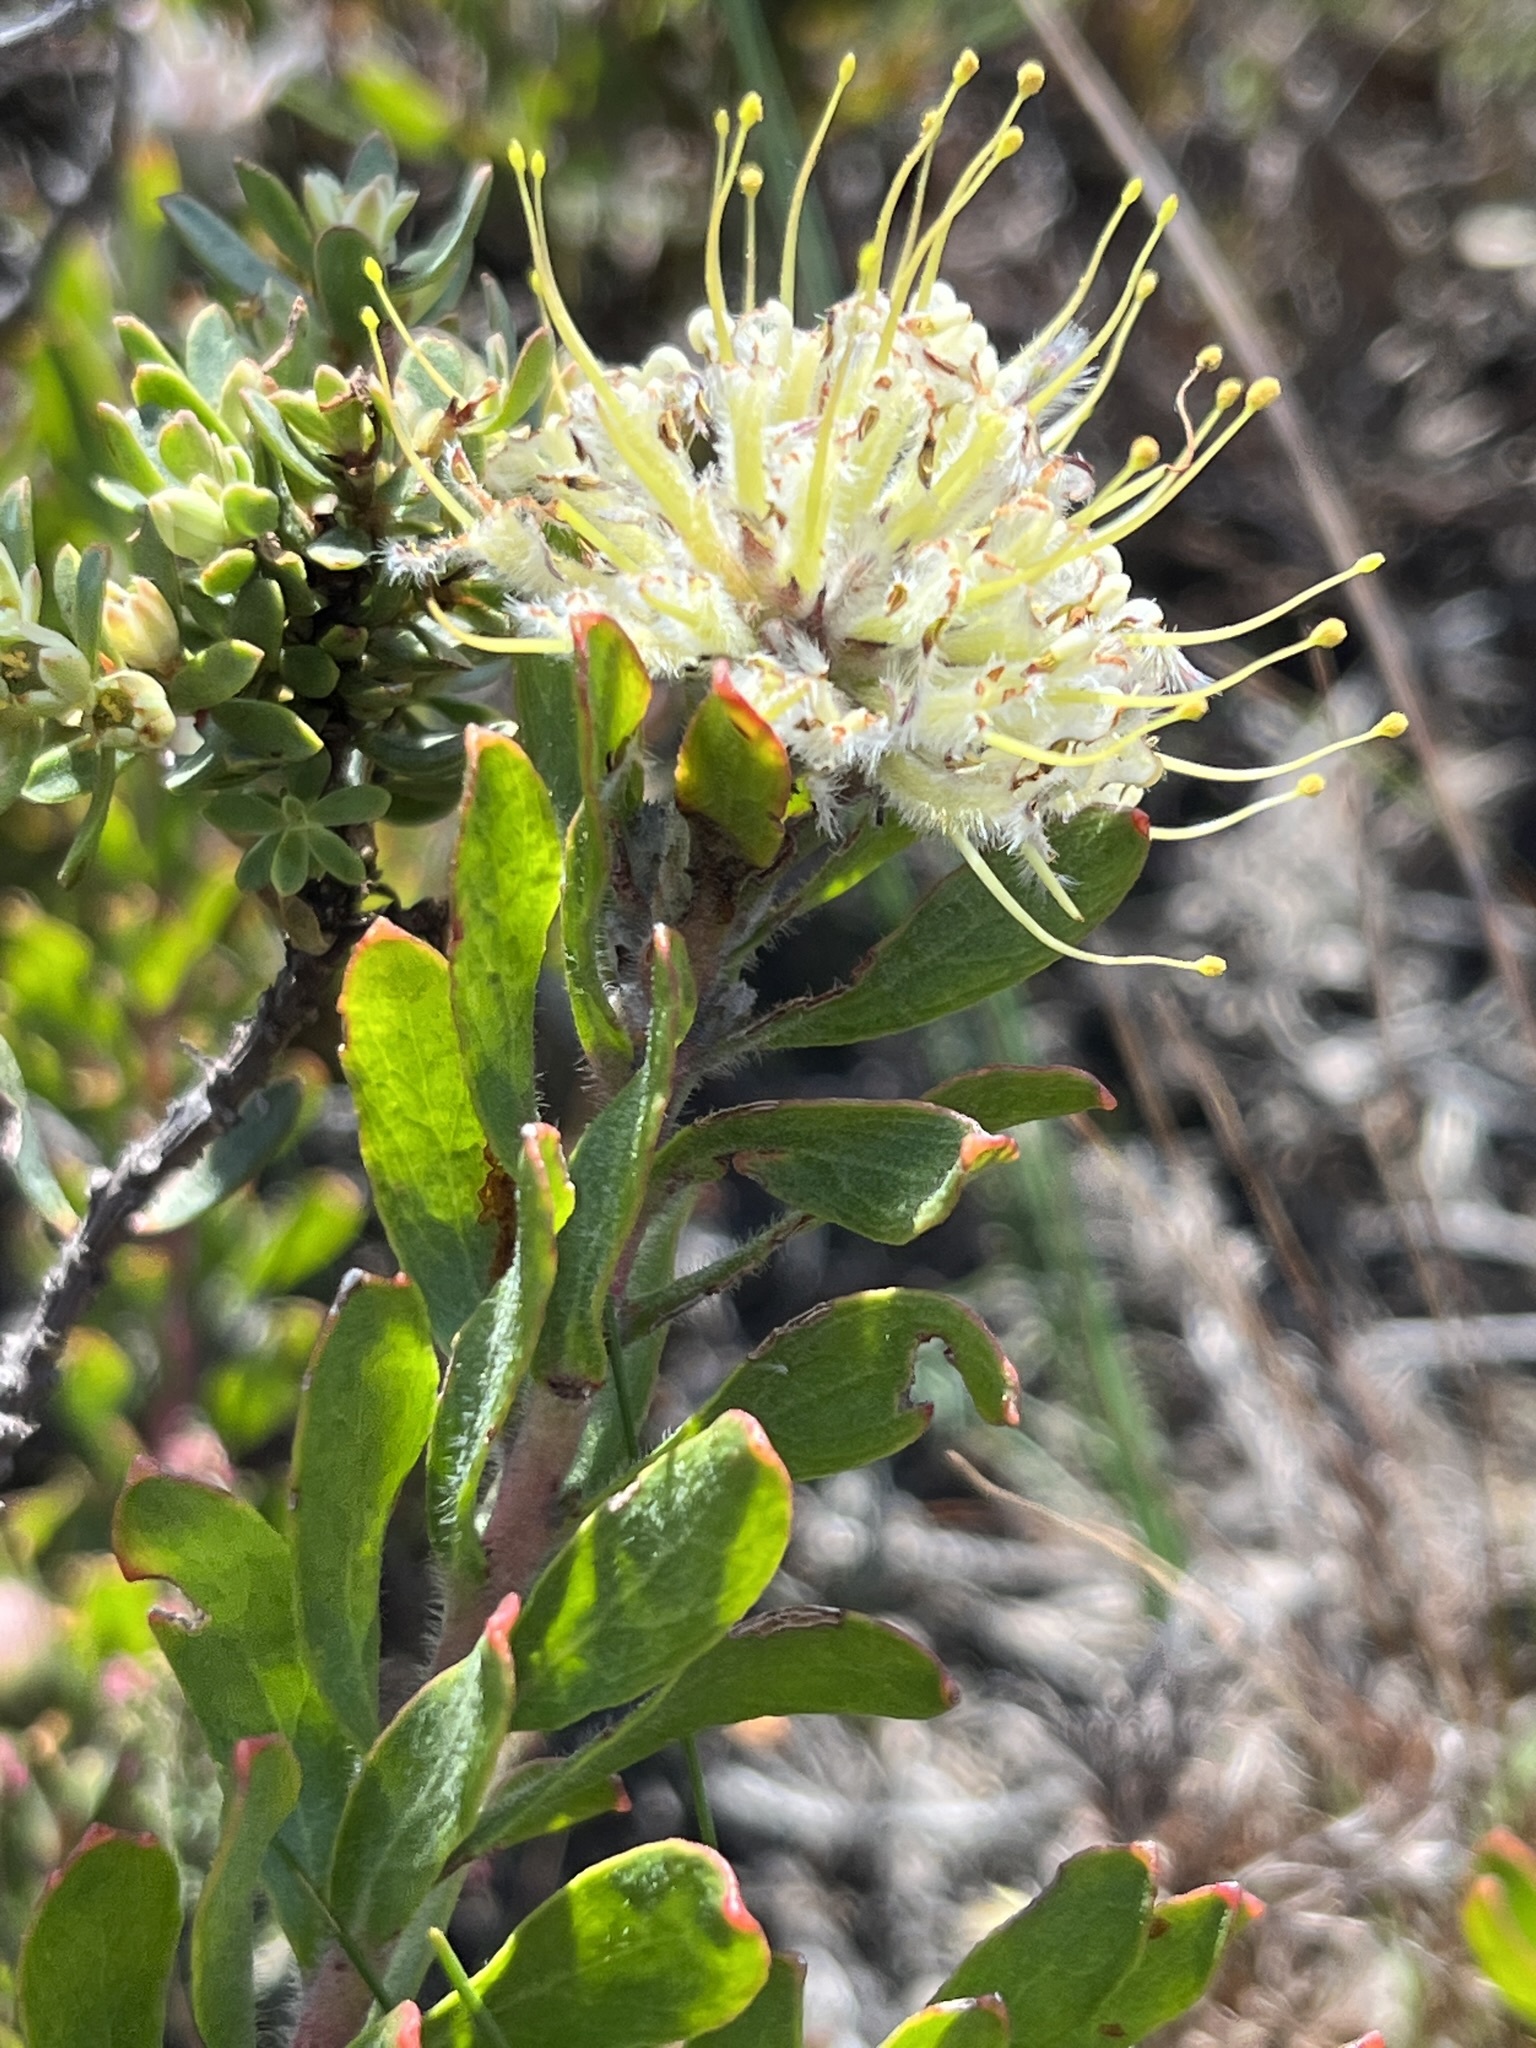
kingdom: Plantae
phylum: Tracheophyta
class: Magnoliopsida
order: Proteales
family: Proteaceae
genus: Leucospermum
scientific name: Leucospermum heterophyllum
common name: Trident pincushion
